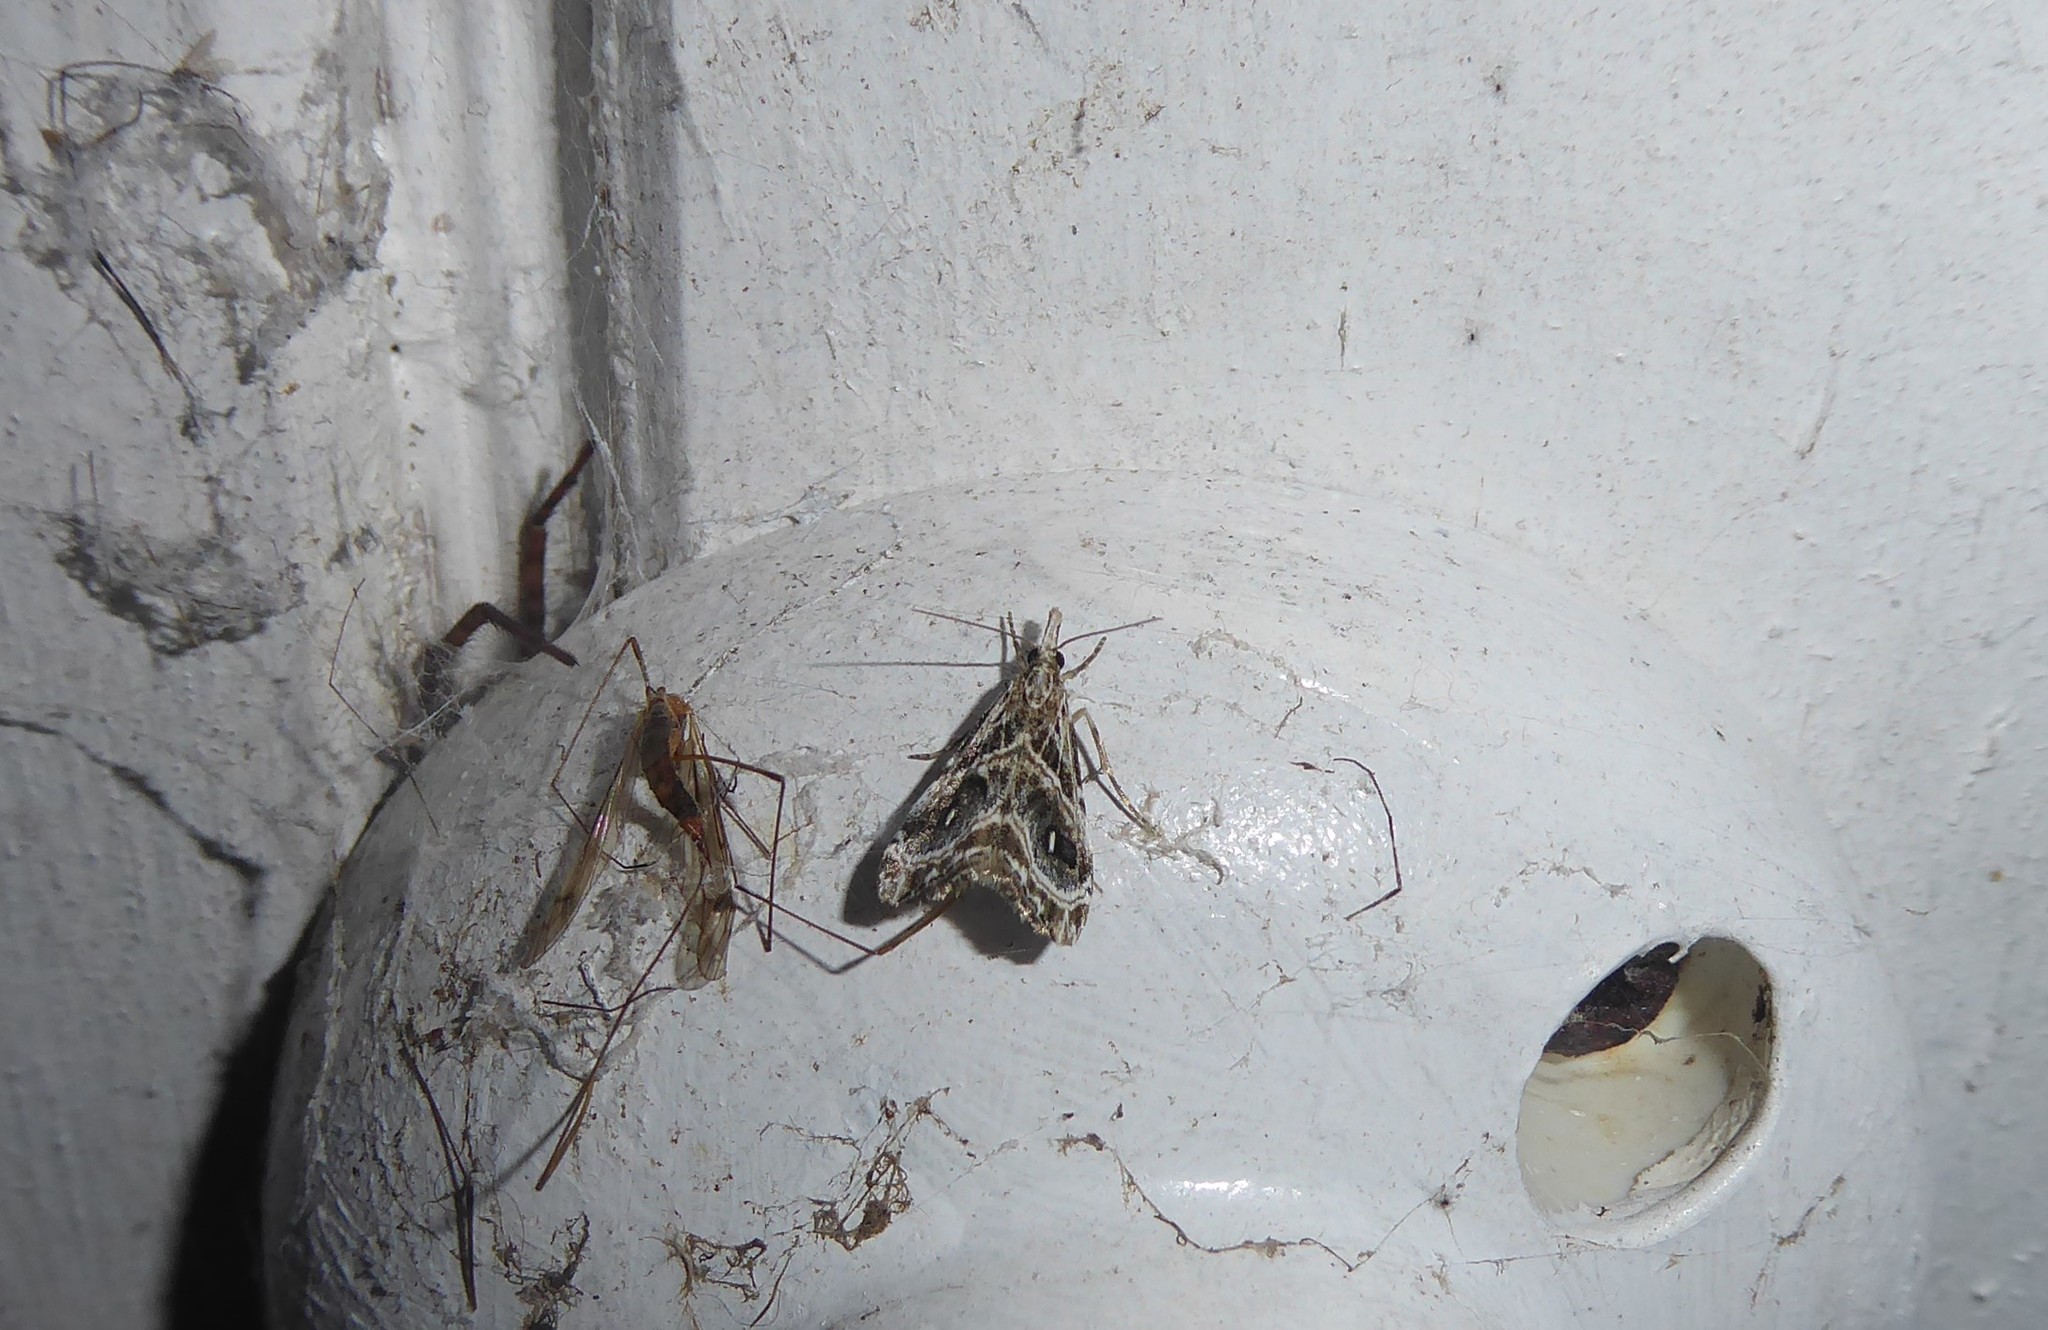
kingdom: Animalia
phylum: Arthropoda
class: Insecta
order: Lepidoptera
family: Crambidae
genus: Gadira
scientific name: Gadira acerella
